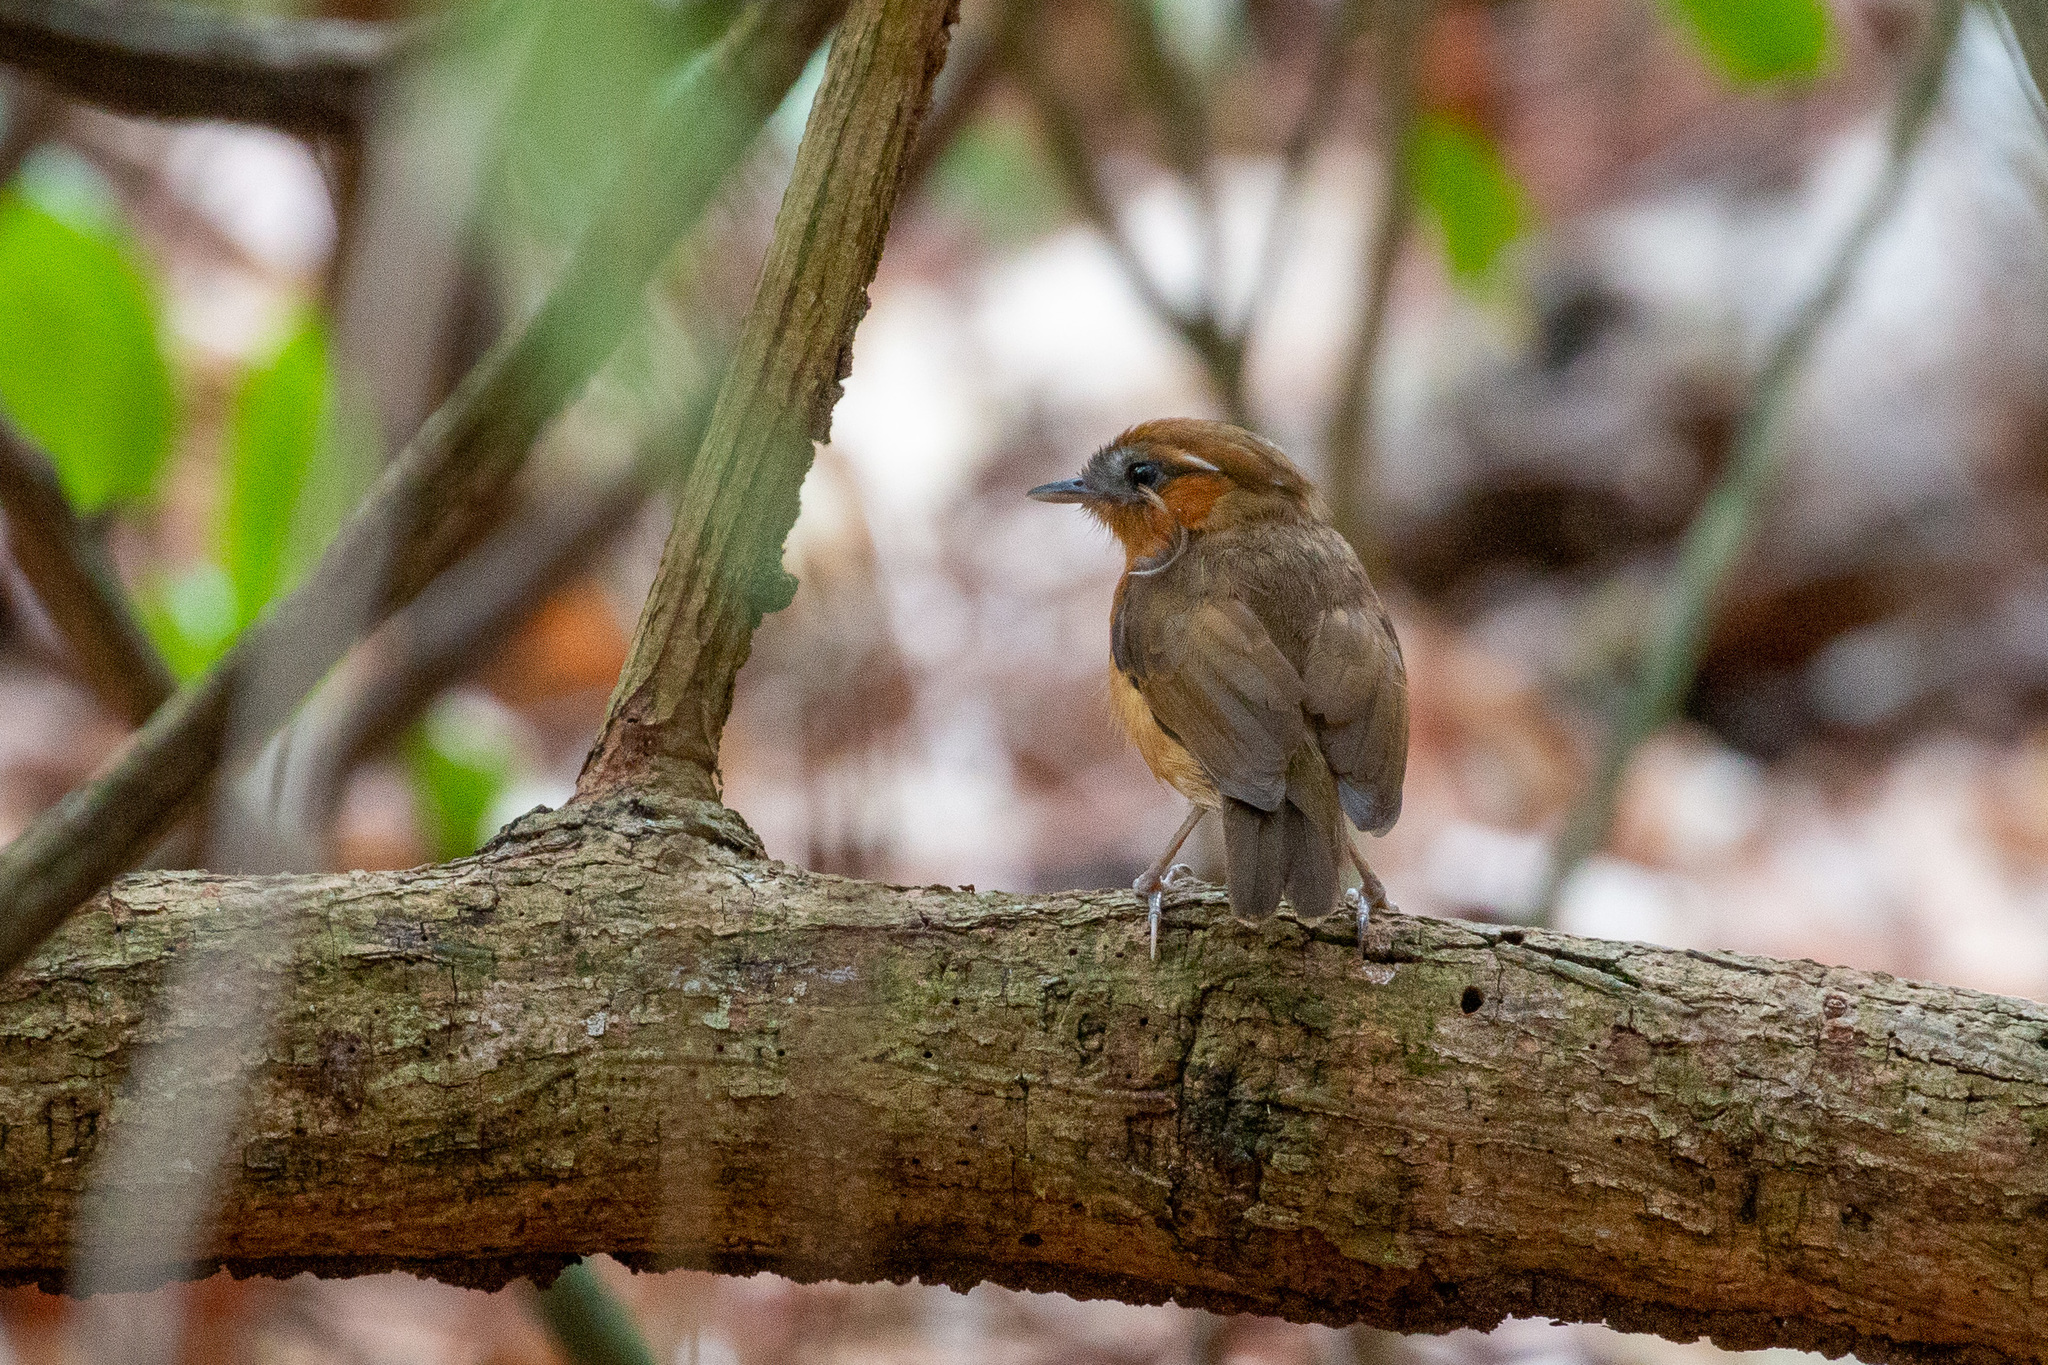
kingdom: Animalia
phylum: Chordata
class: Aves
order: Passeriformes
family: Conopophagidae
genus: Conopophaga
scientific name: Conopophaga cearae
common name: Ceara gnateater
